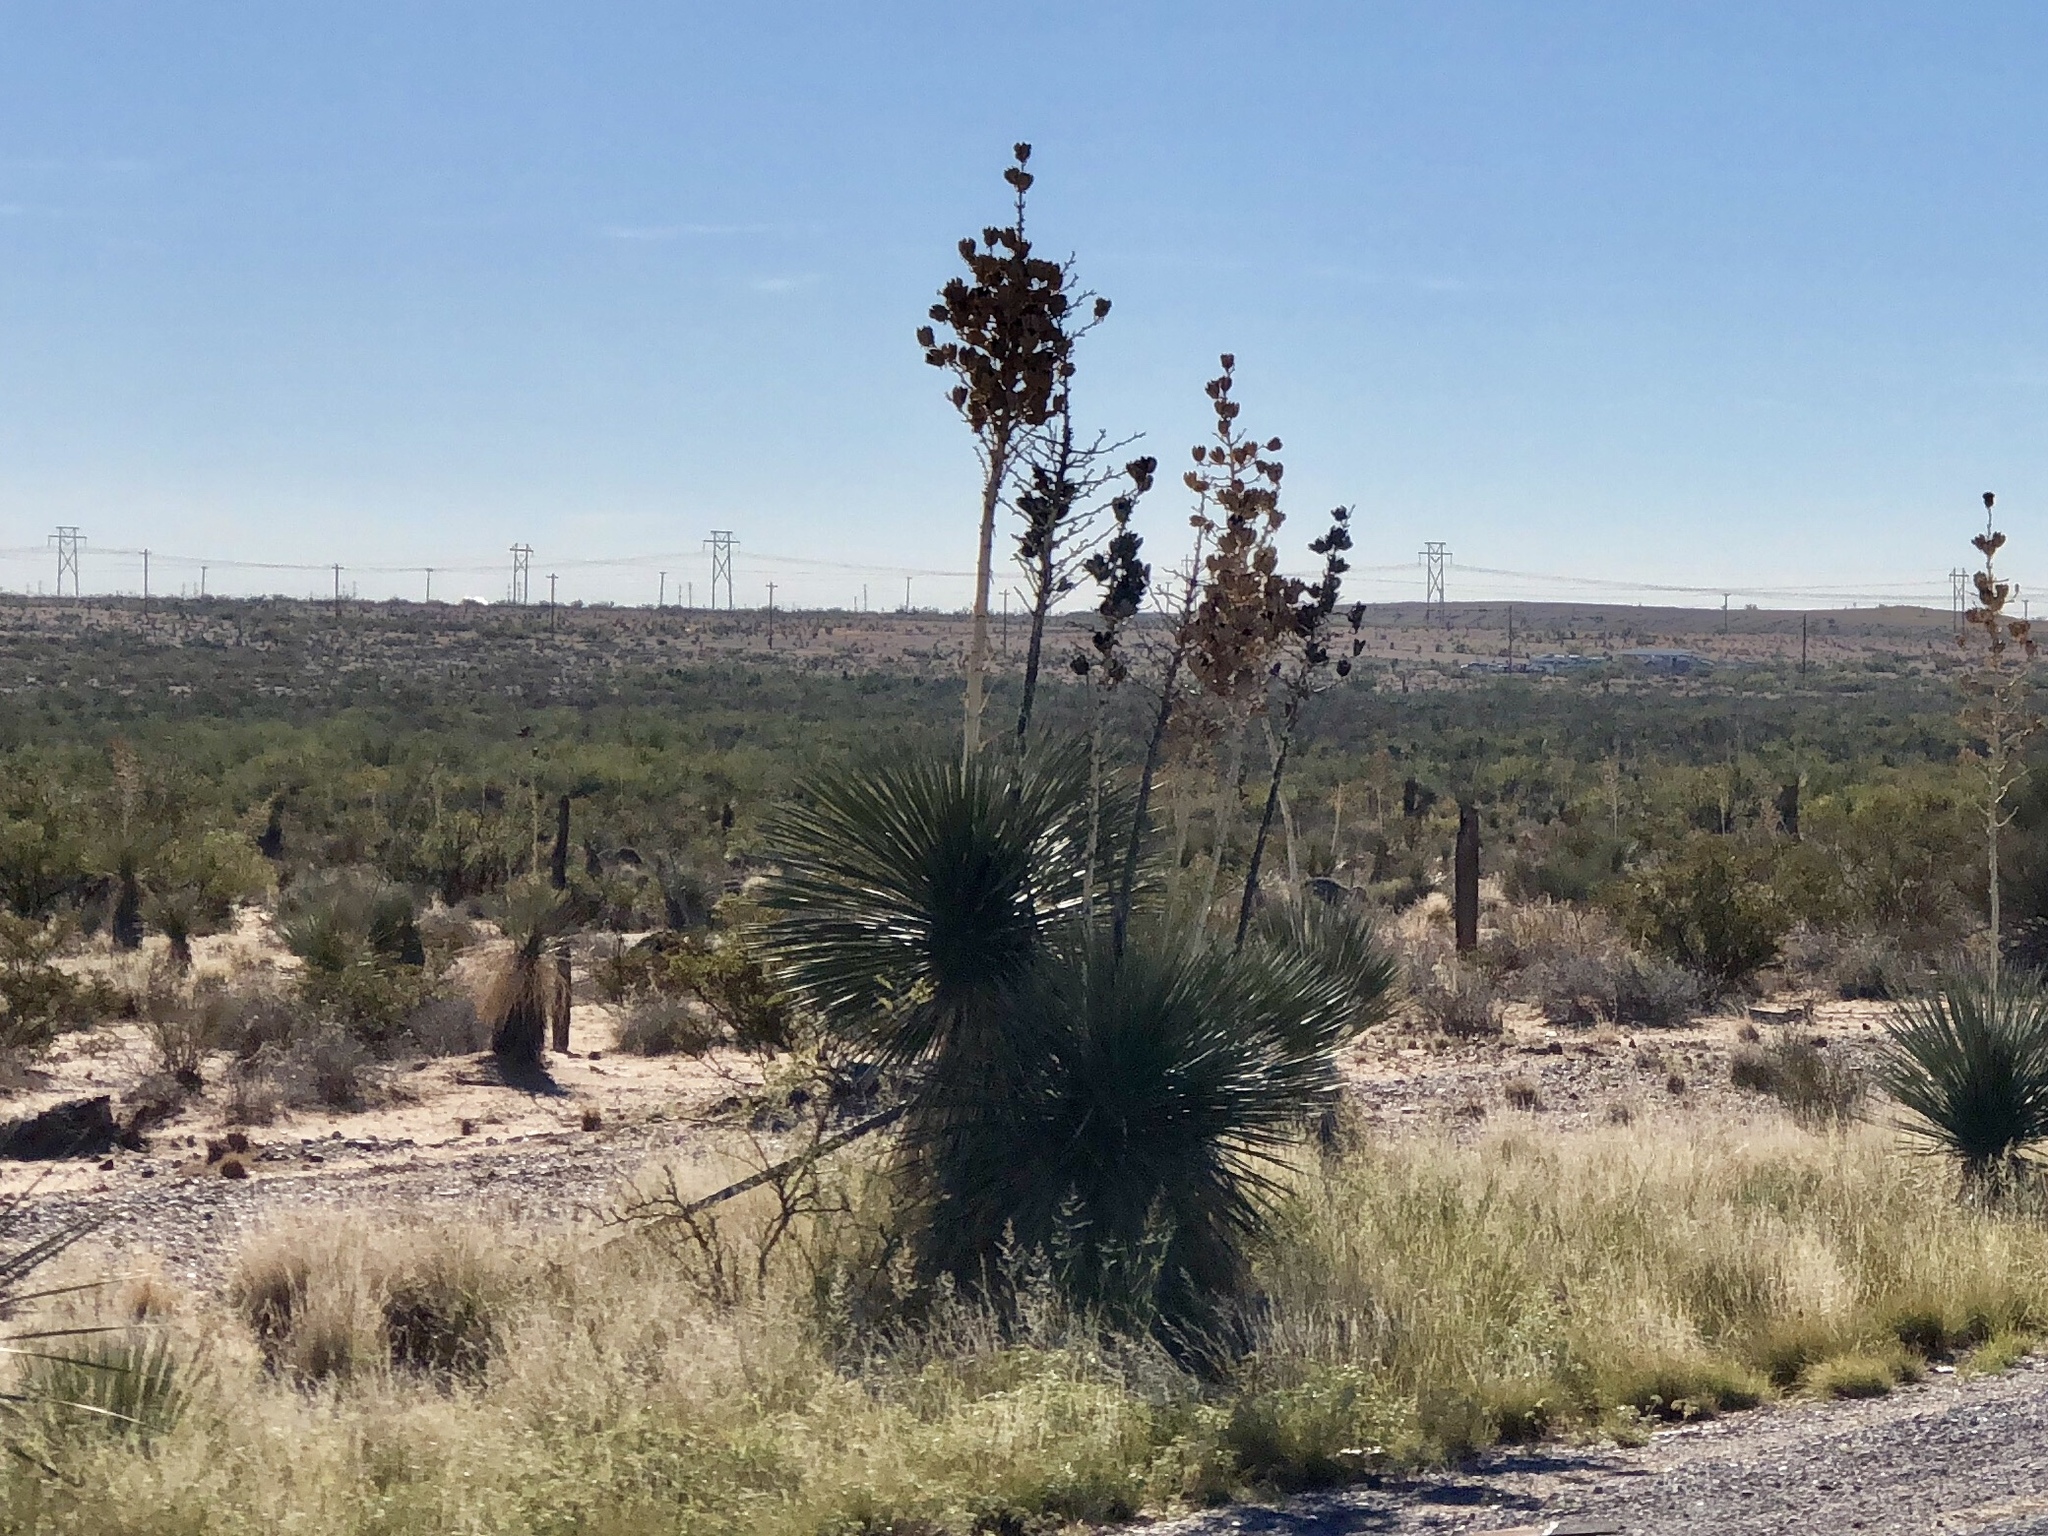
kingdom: Plantae
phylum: Tracheophyta
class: Liliopsida
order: Asparagales
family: Asparagaceae
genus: Yucca
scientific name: Yucca elata
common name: Palmella
